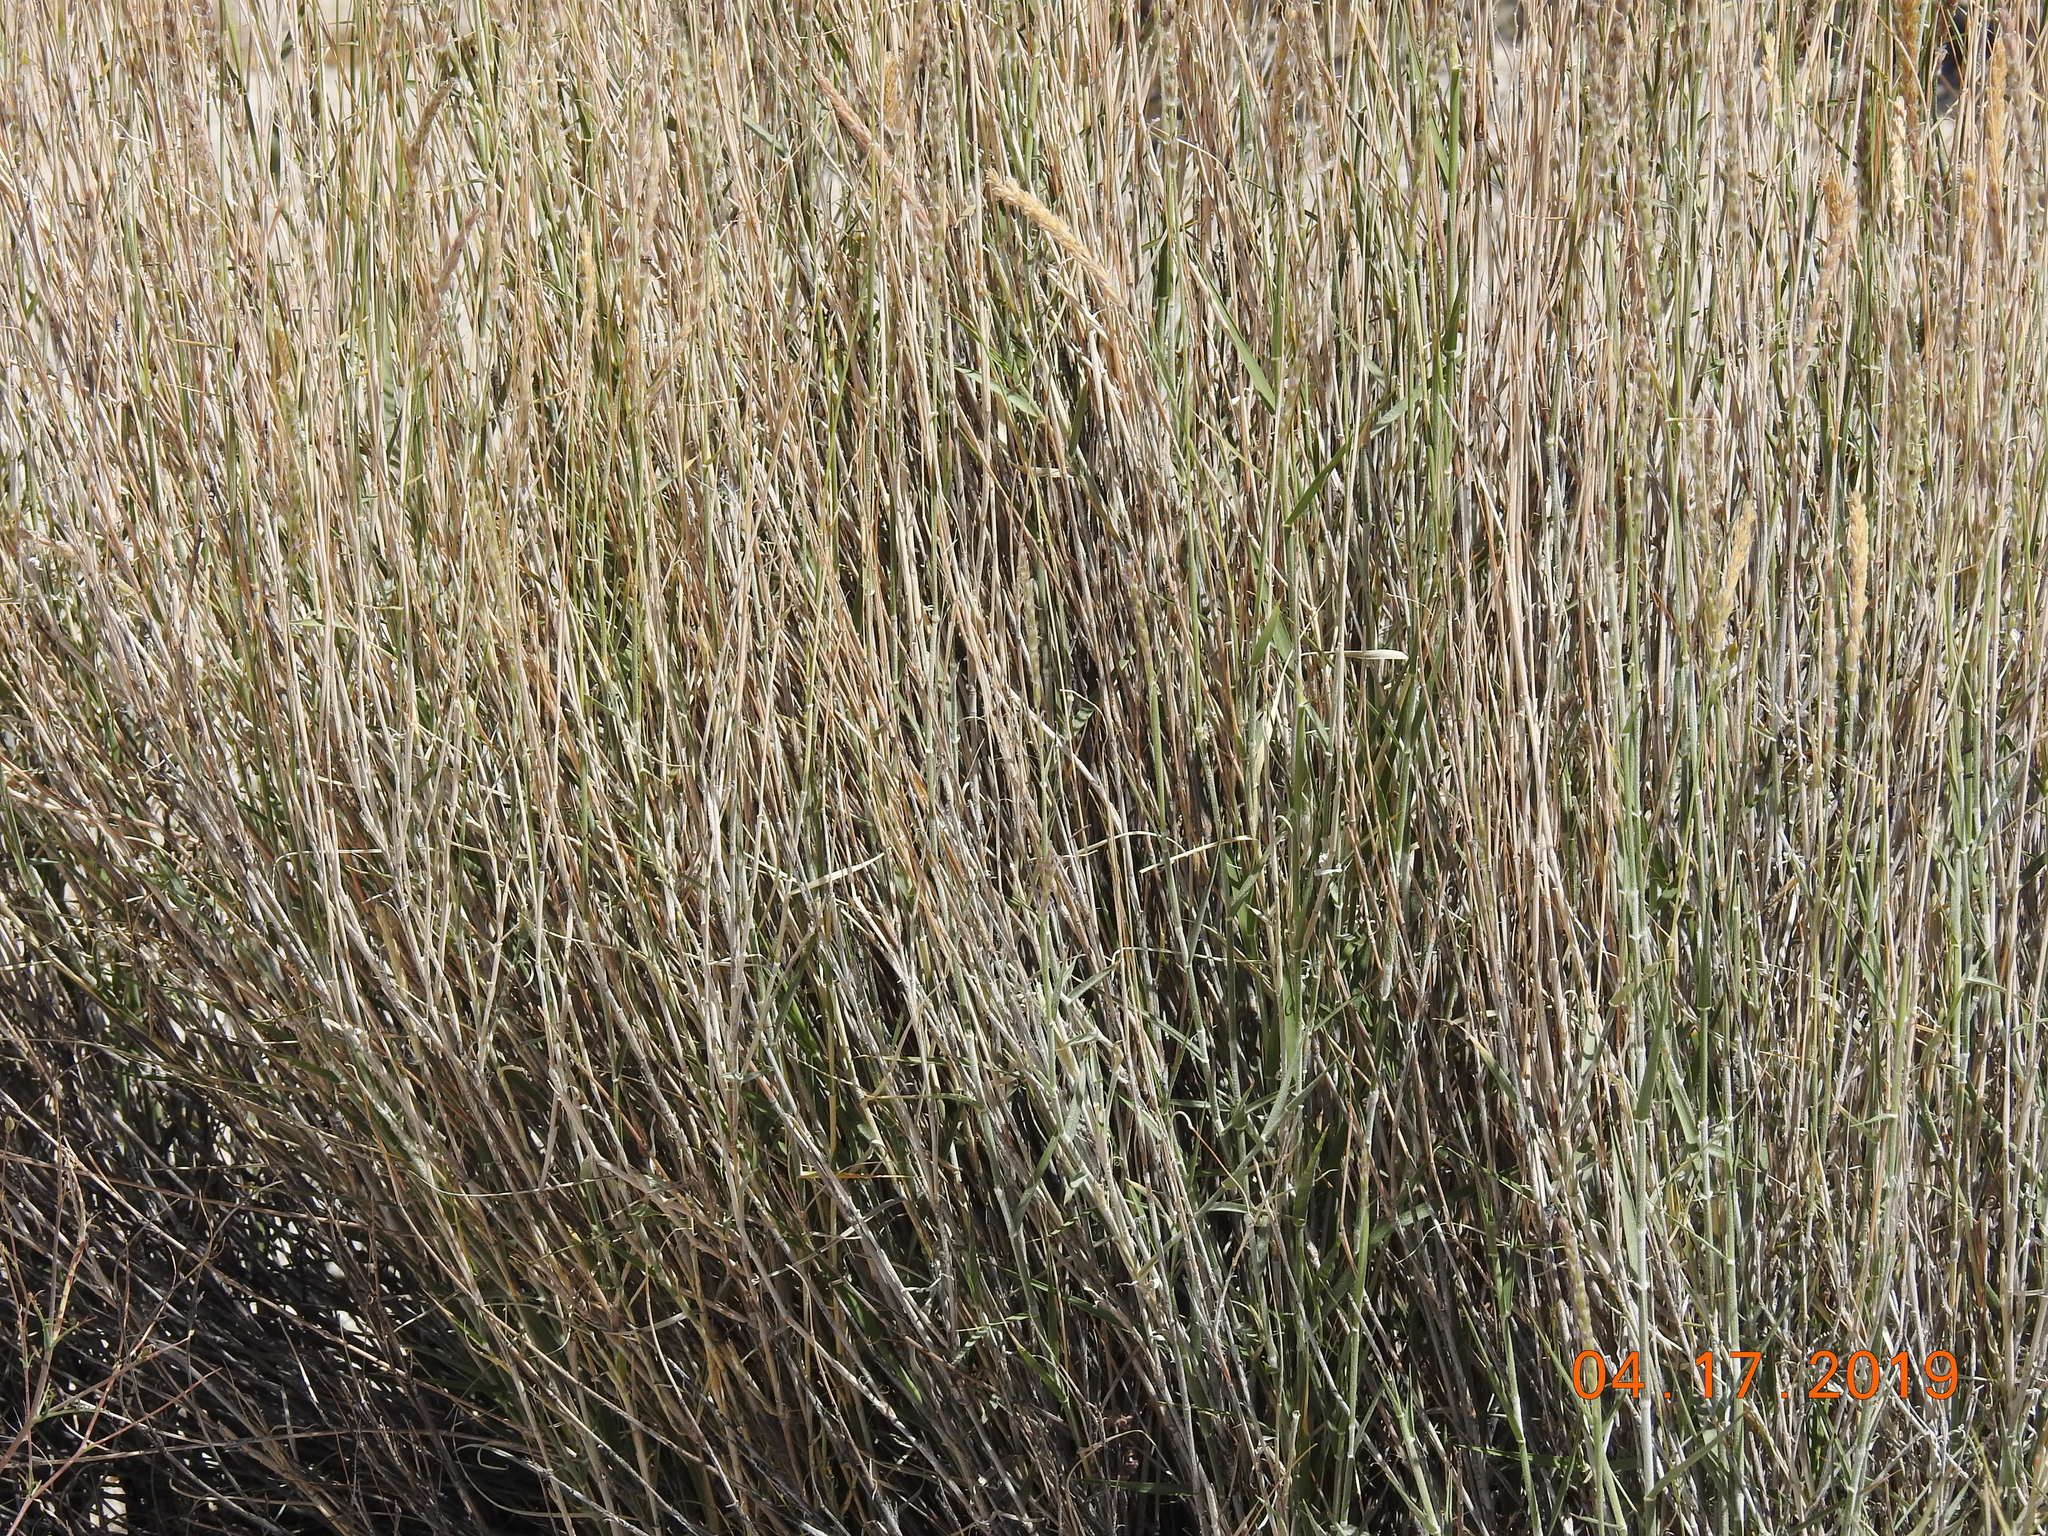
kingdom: Plantae
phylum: Tracheophyta
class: Liliopsida
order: Poales
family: Poaceae
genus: Hilaria
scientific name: Hilaria rigida
